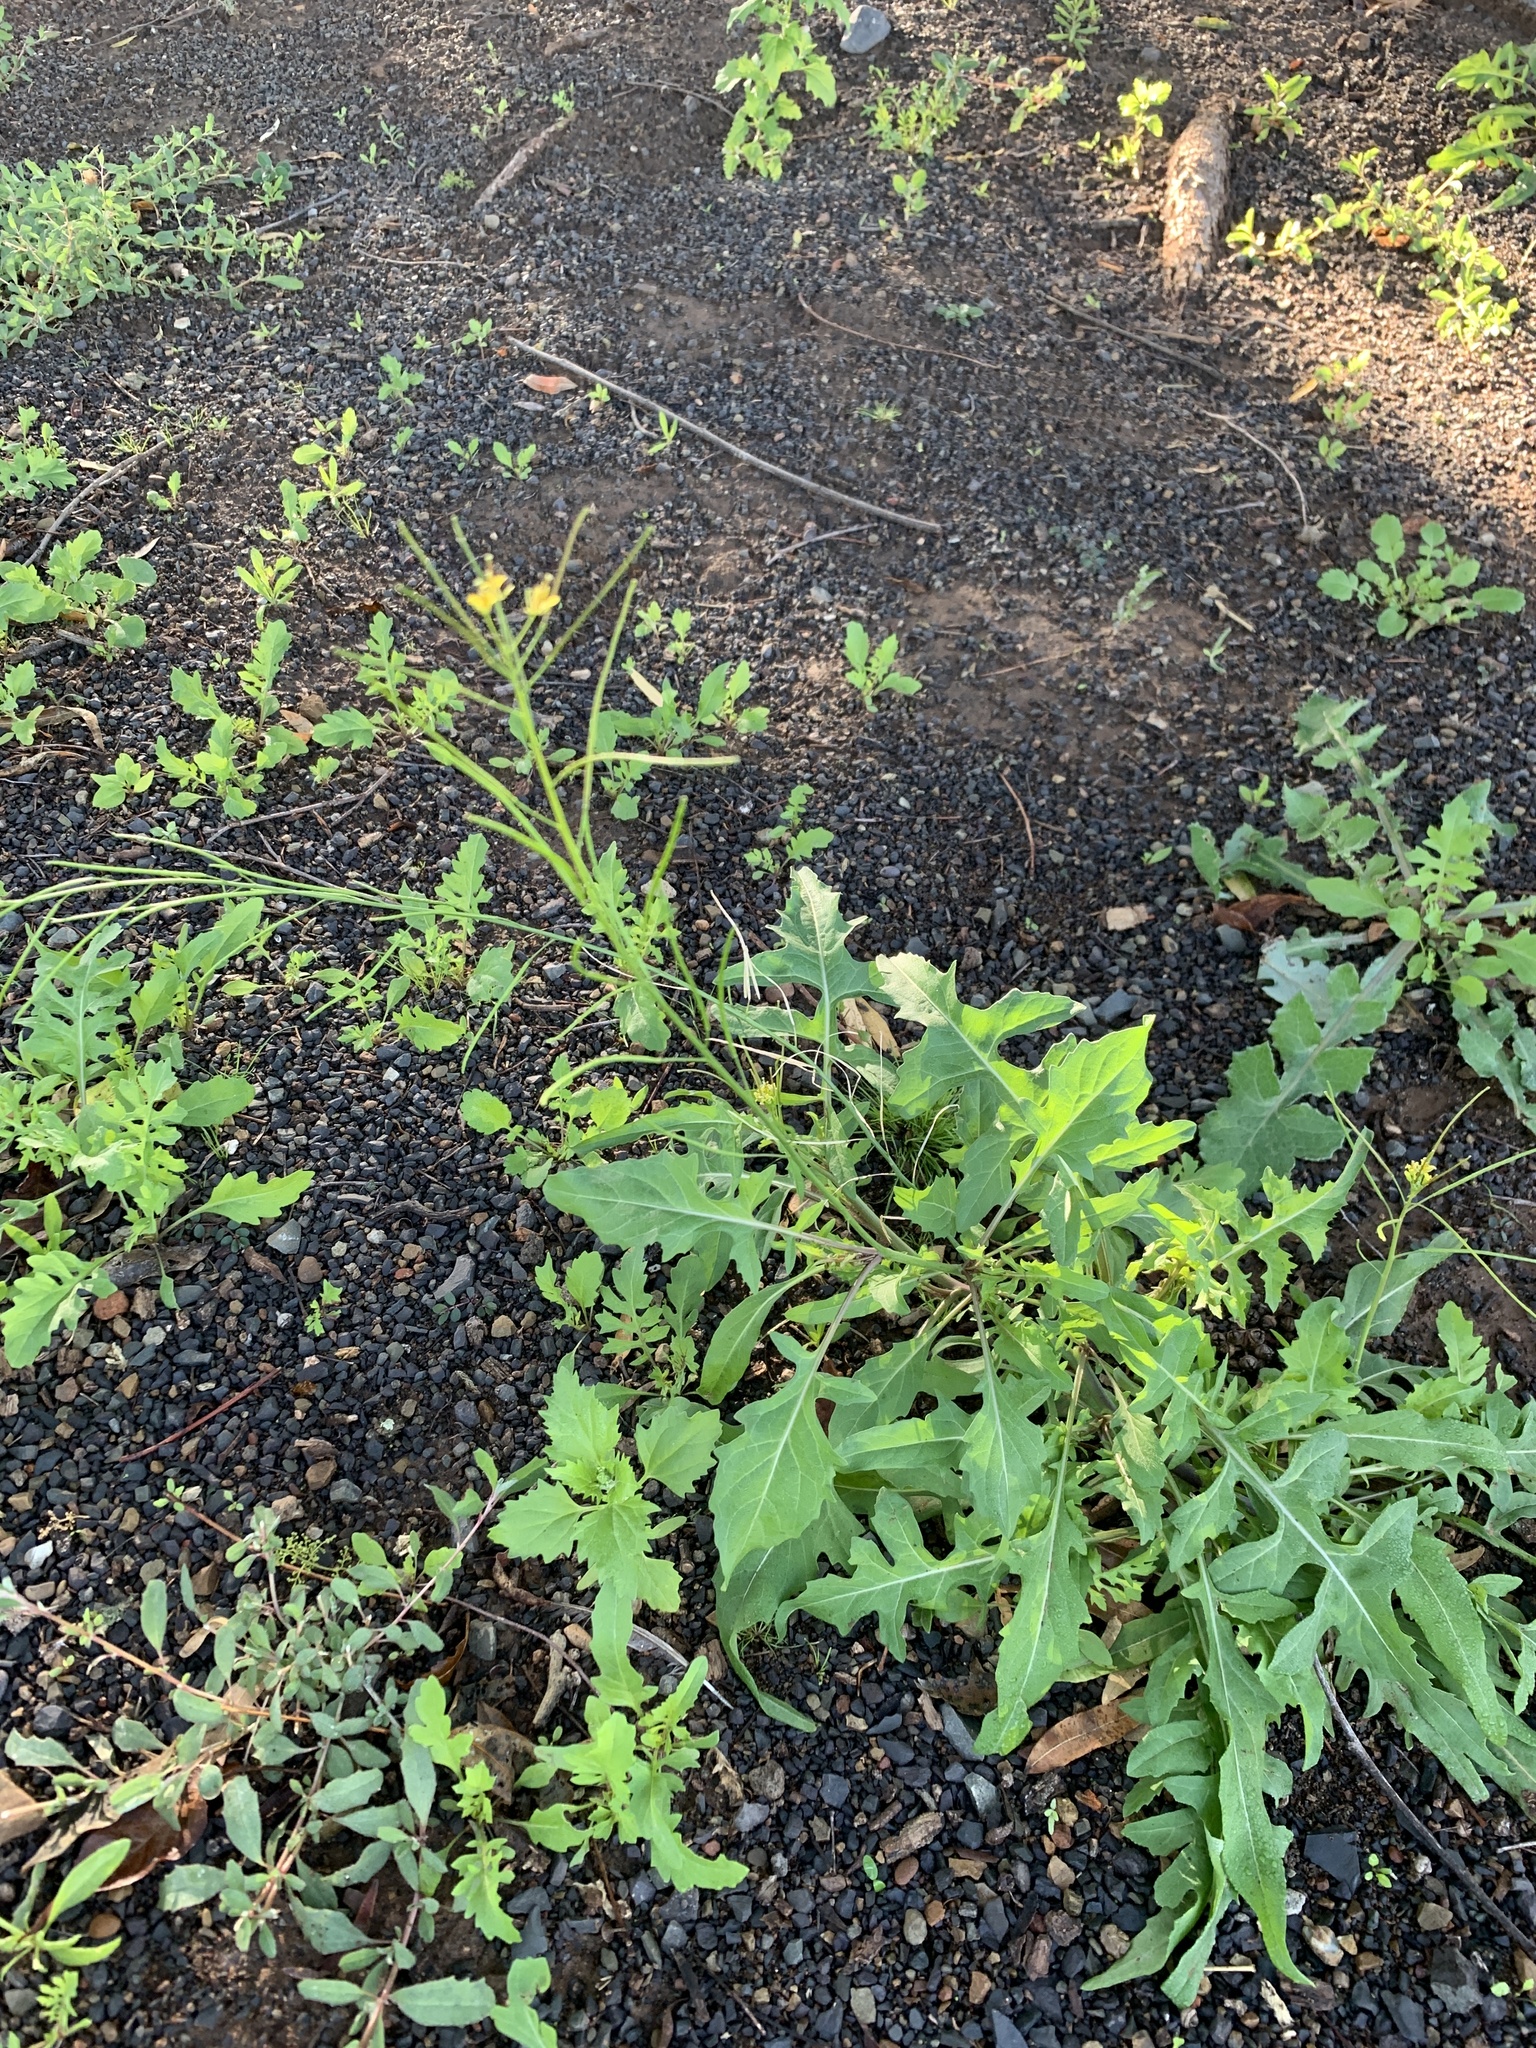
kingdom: Plantae
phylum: Tracheophyta
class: Magnoliopsida
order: Brassicales
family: Brassicaceae
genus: Sisymbrium
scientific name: Sisymbrium irio
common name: London rocket
